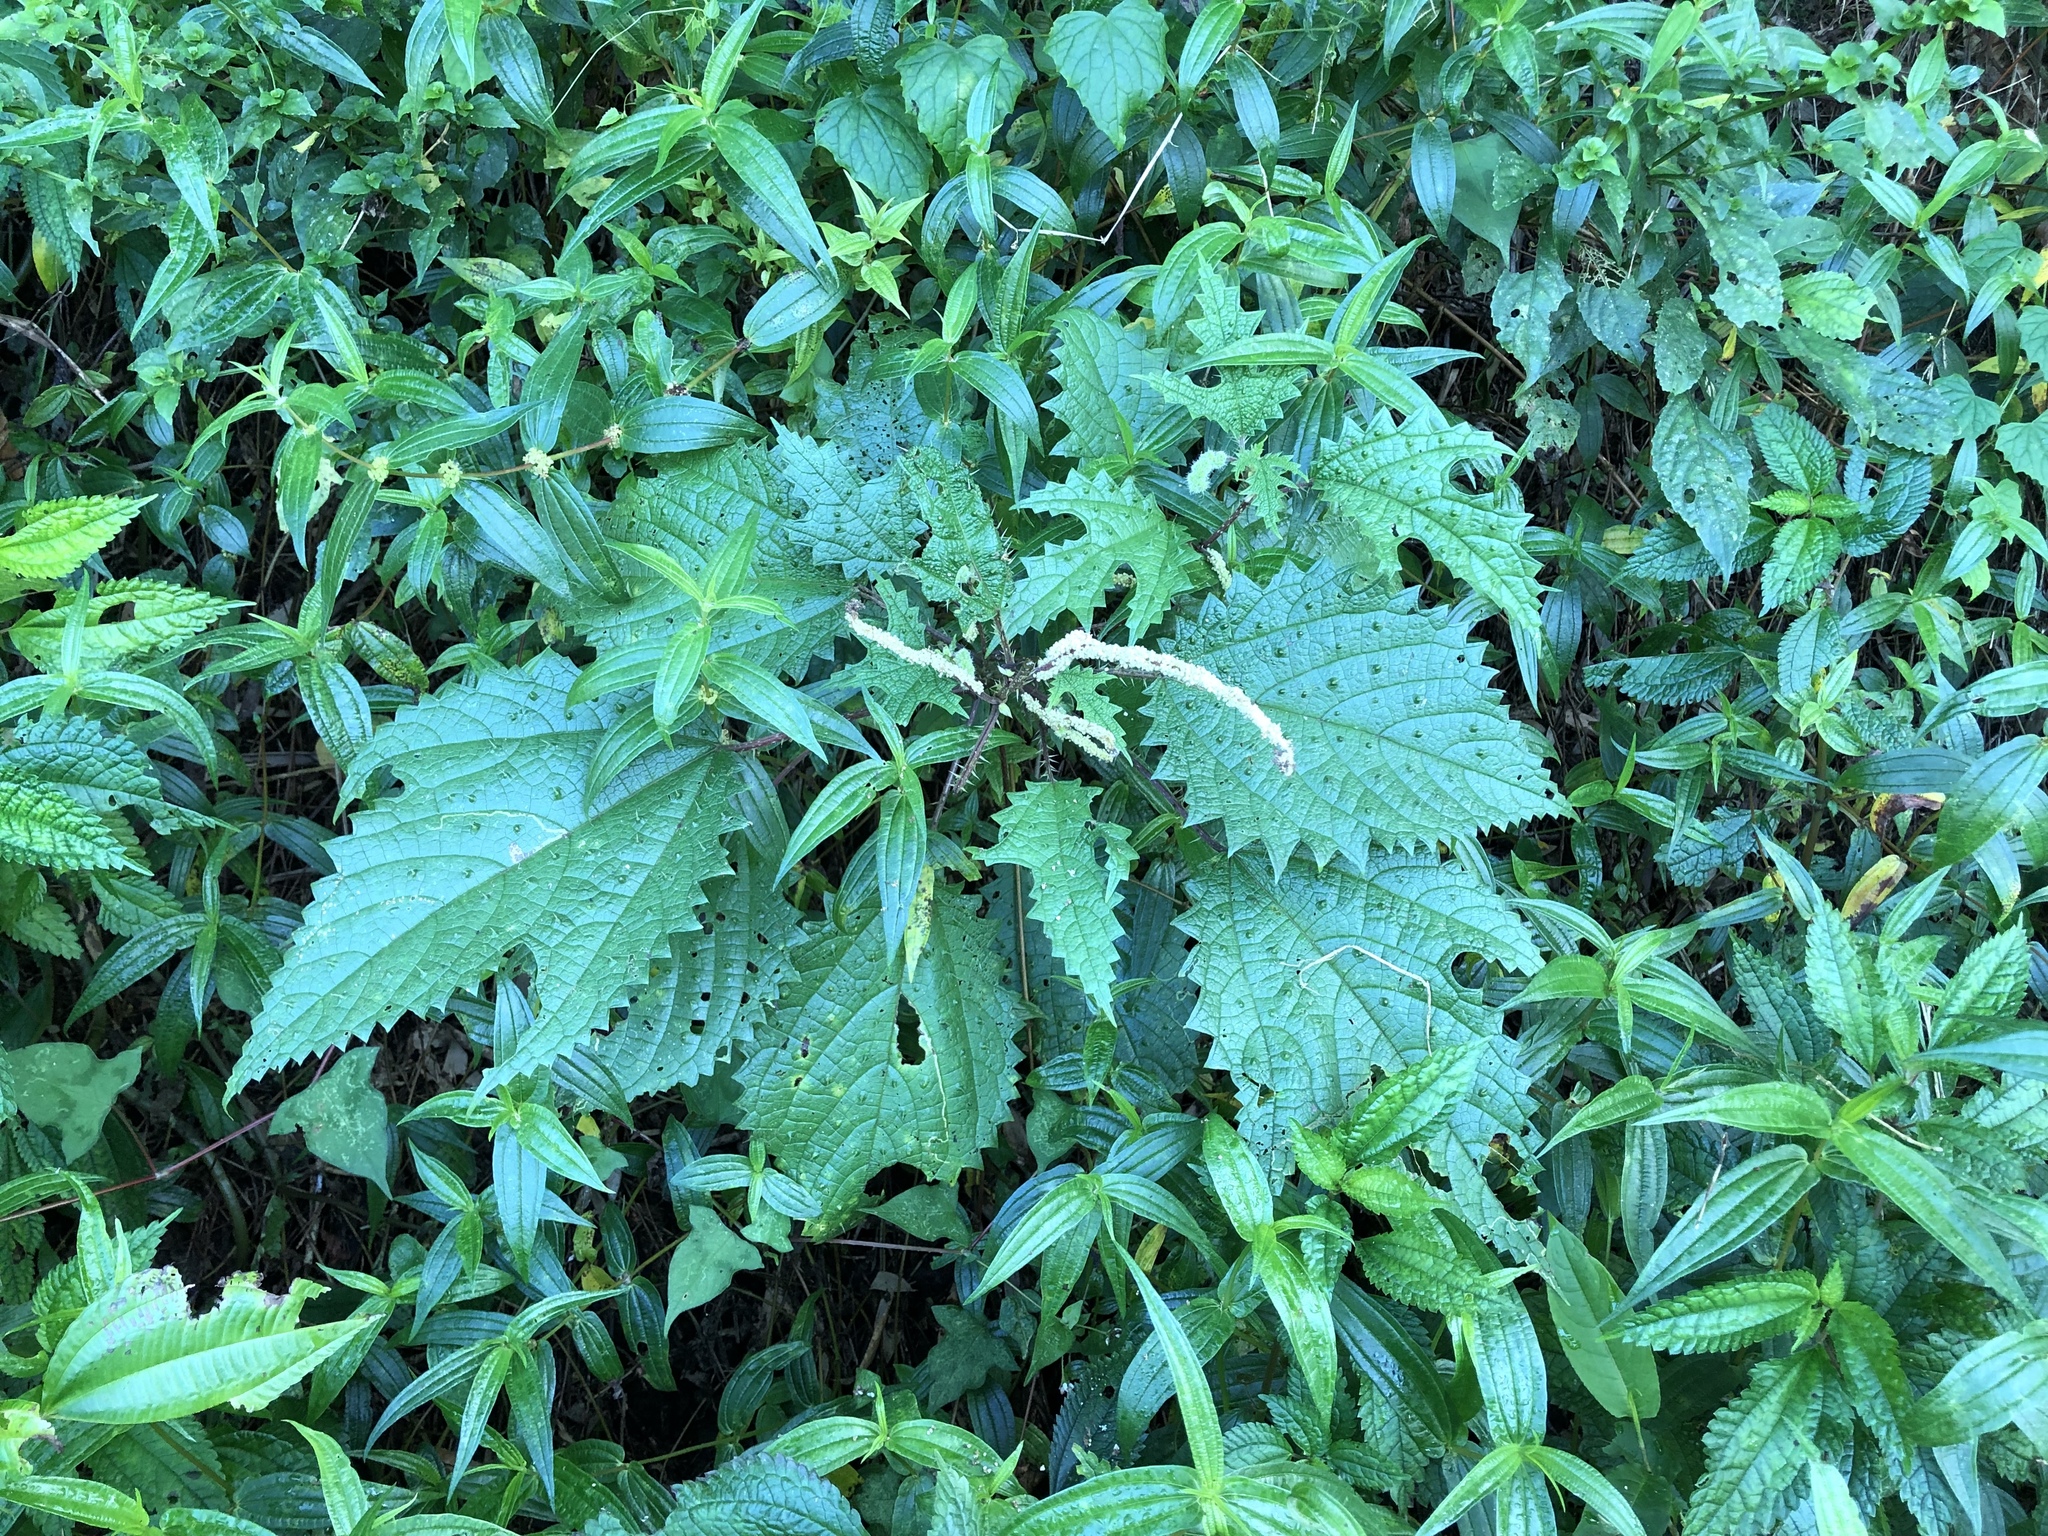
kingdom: Plantae
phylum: Tracheophyta
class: Magnoliopsida
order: Rosales
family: Urticaceae
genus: Girardinia
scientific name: Girardinia diversifolia
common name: Himalayan-nettle
